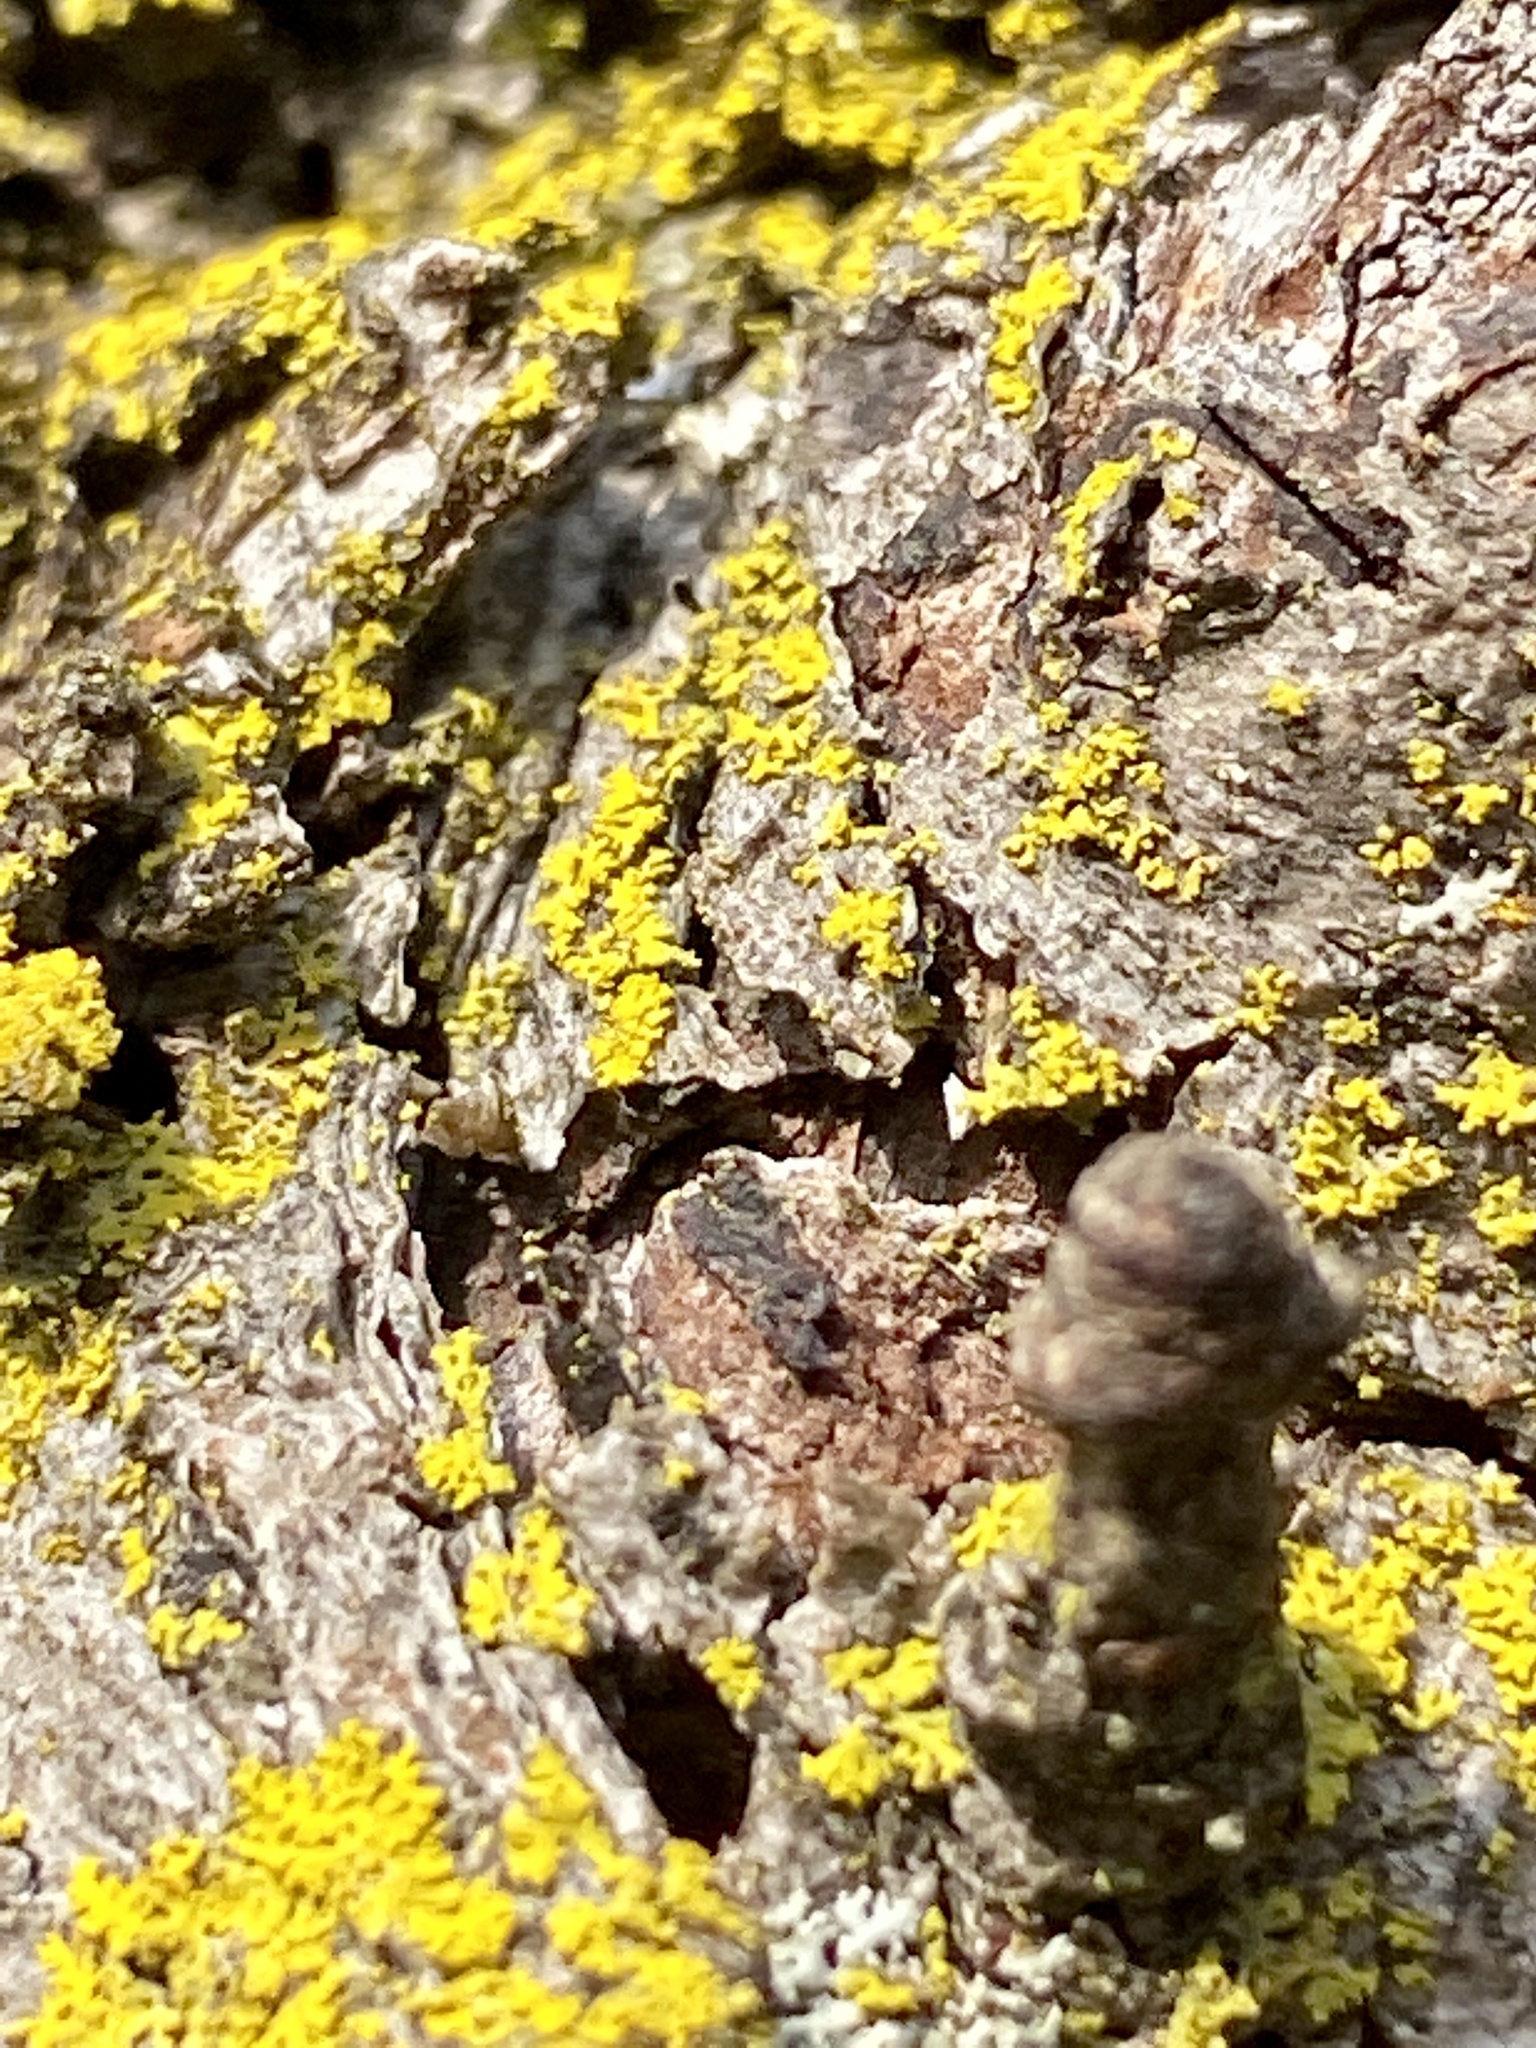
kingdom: Fungi
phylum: Ascomycota
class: Candelariomycetes
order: Candelariales
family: Candelariaceae
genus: Candelaria
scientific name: Candelaria concolor
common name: Candleflame lichen
